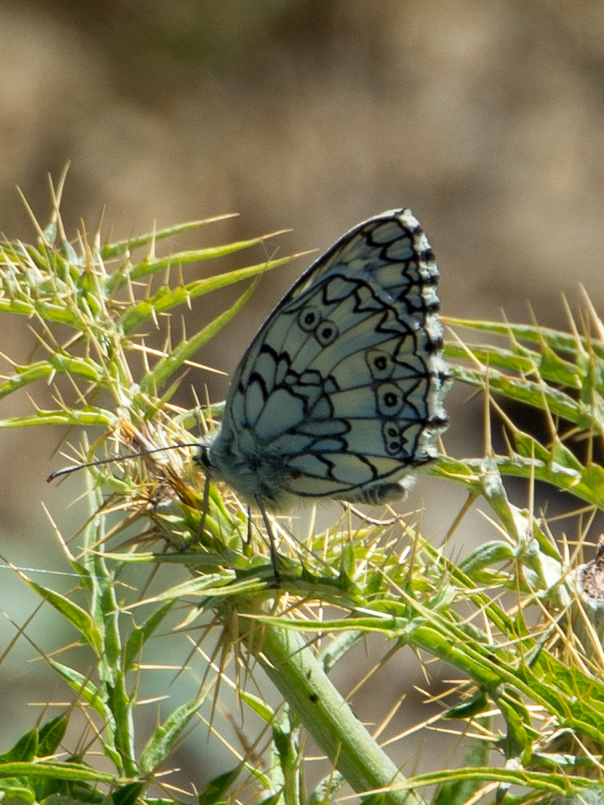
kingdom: Animalia
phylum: Arthropoda
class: Insecta
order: Lepidoptera
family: Nymphalidae
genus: Melanargia
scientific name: Melanargia japygia
